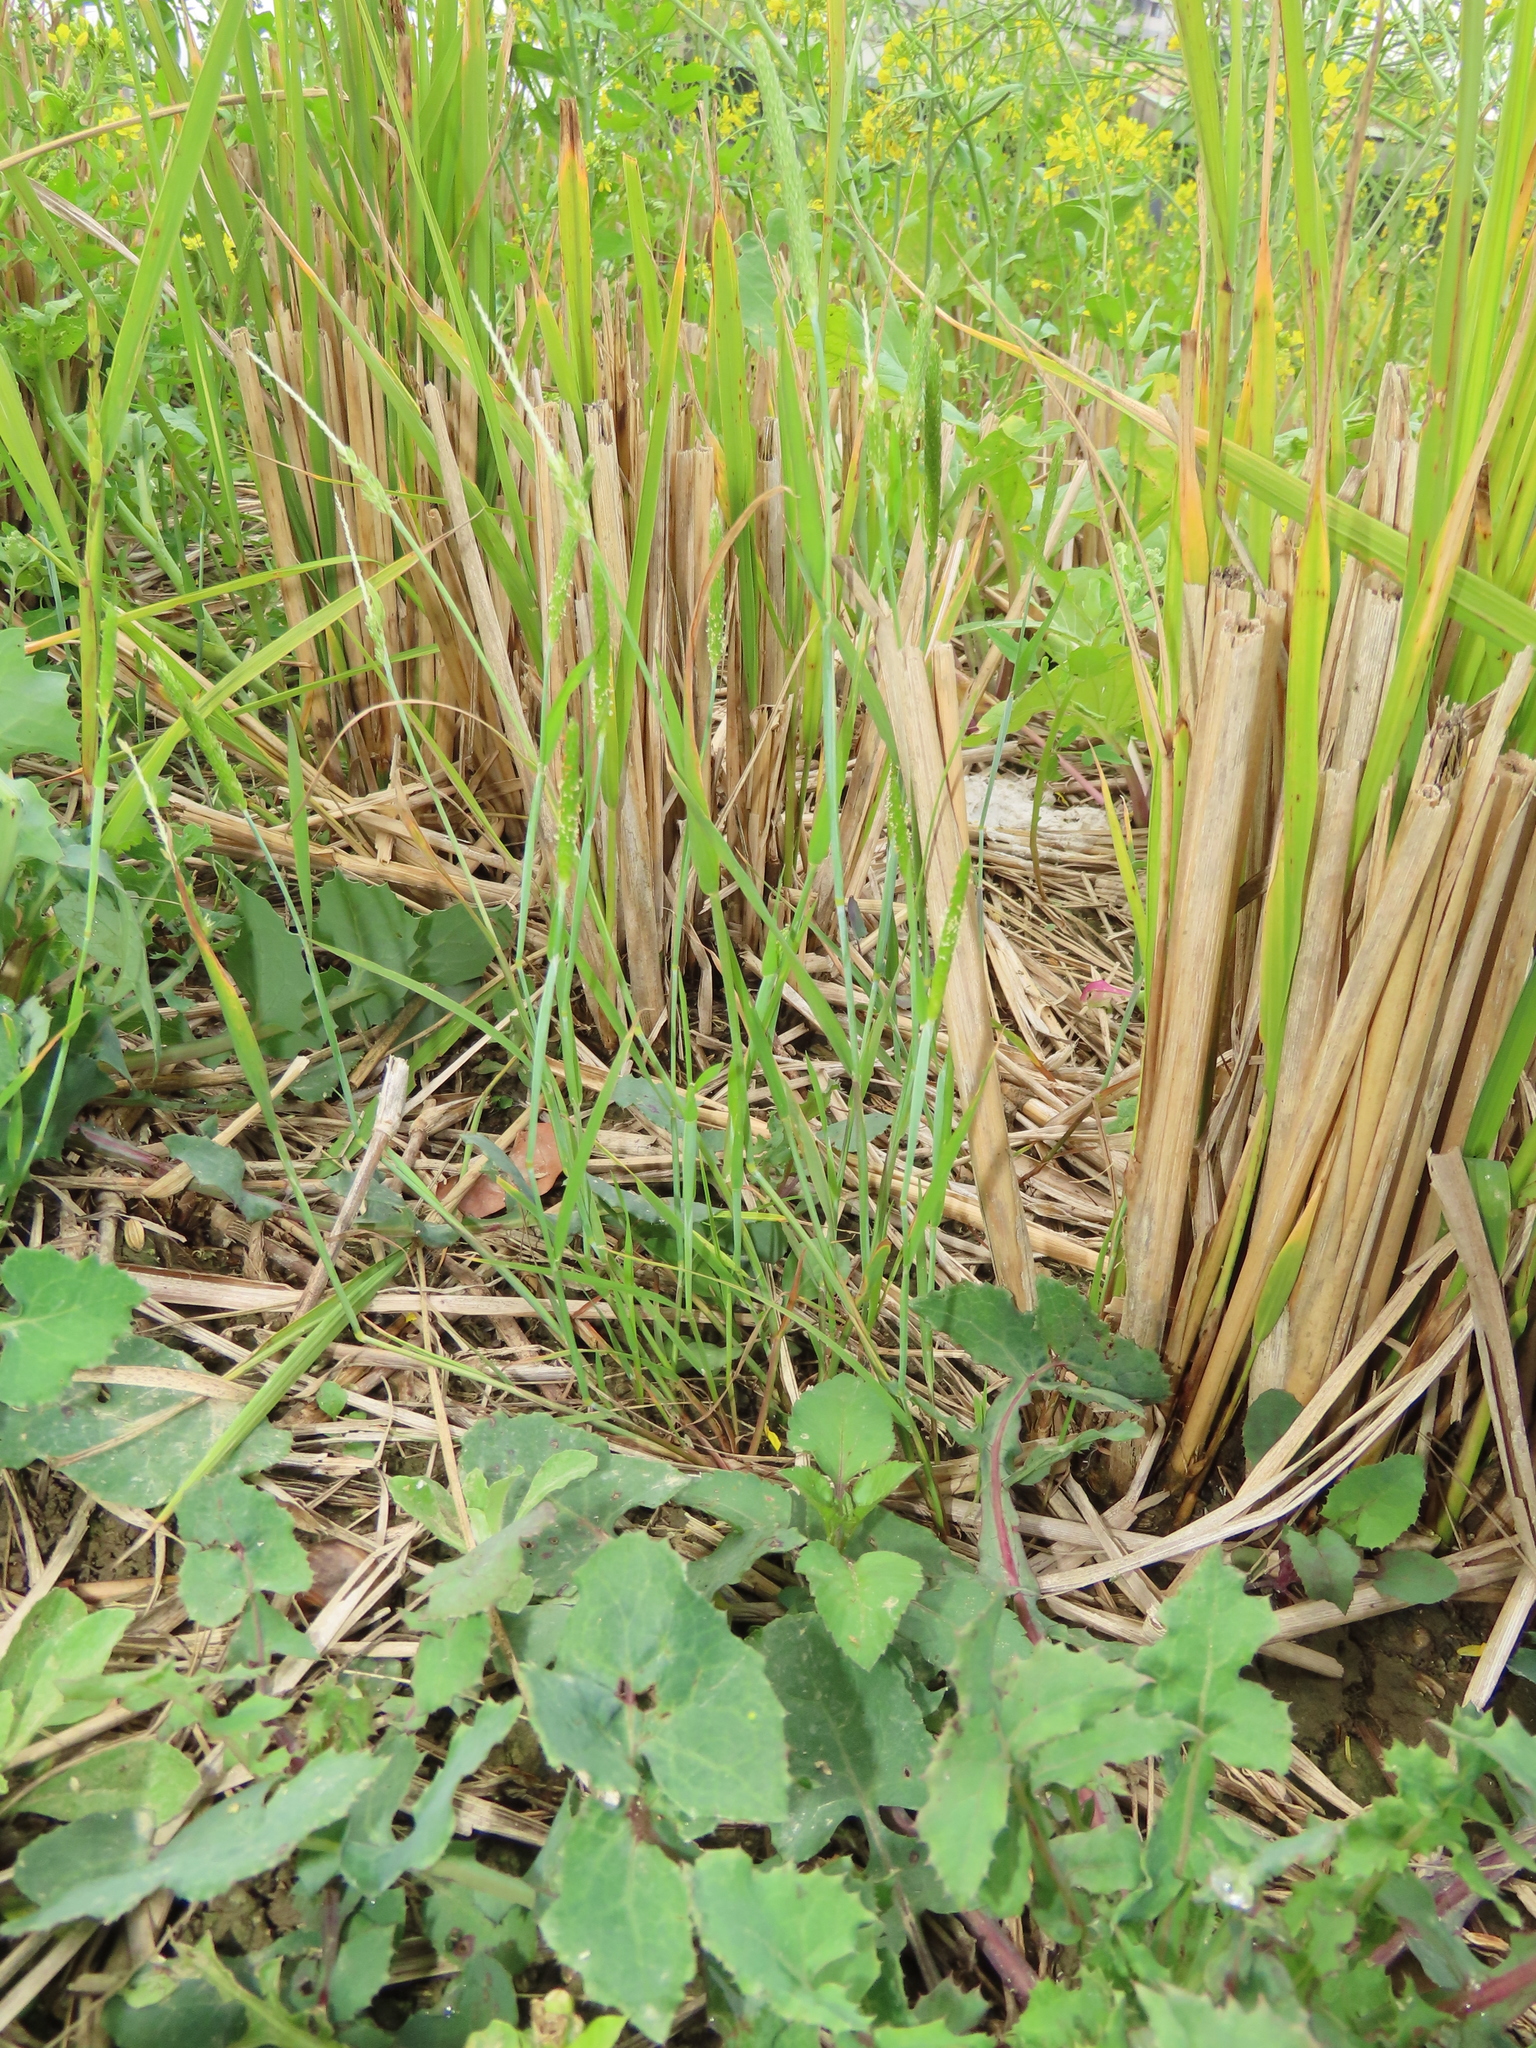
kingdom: Plantae
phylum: Tracheophyta
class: Liliopsida
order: Poales
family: Poaceae
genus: Alopecurus
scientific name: Alopecurus aequalis
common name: Orange foxtail
